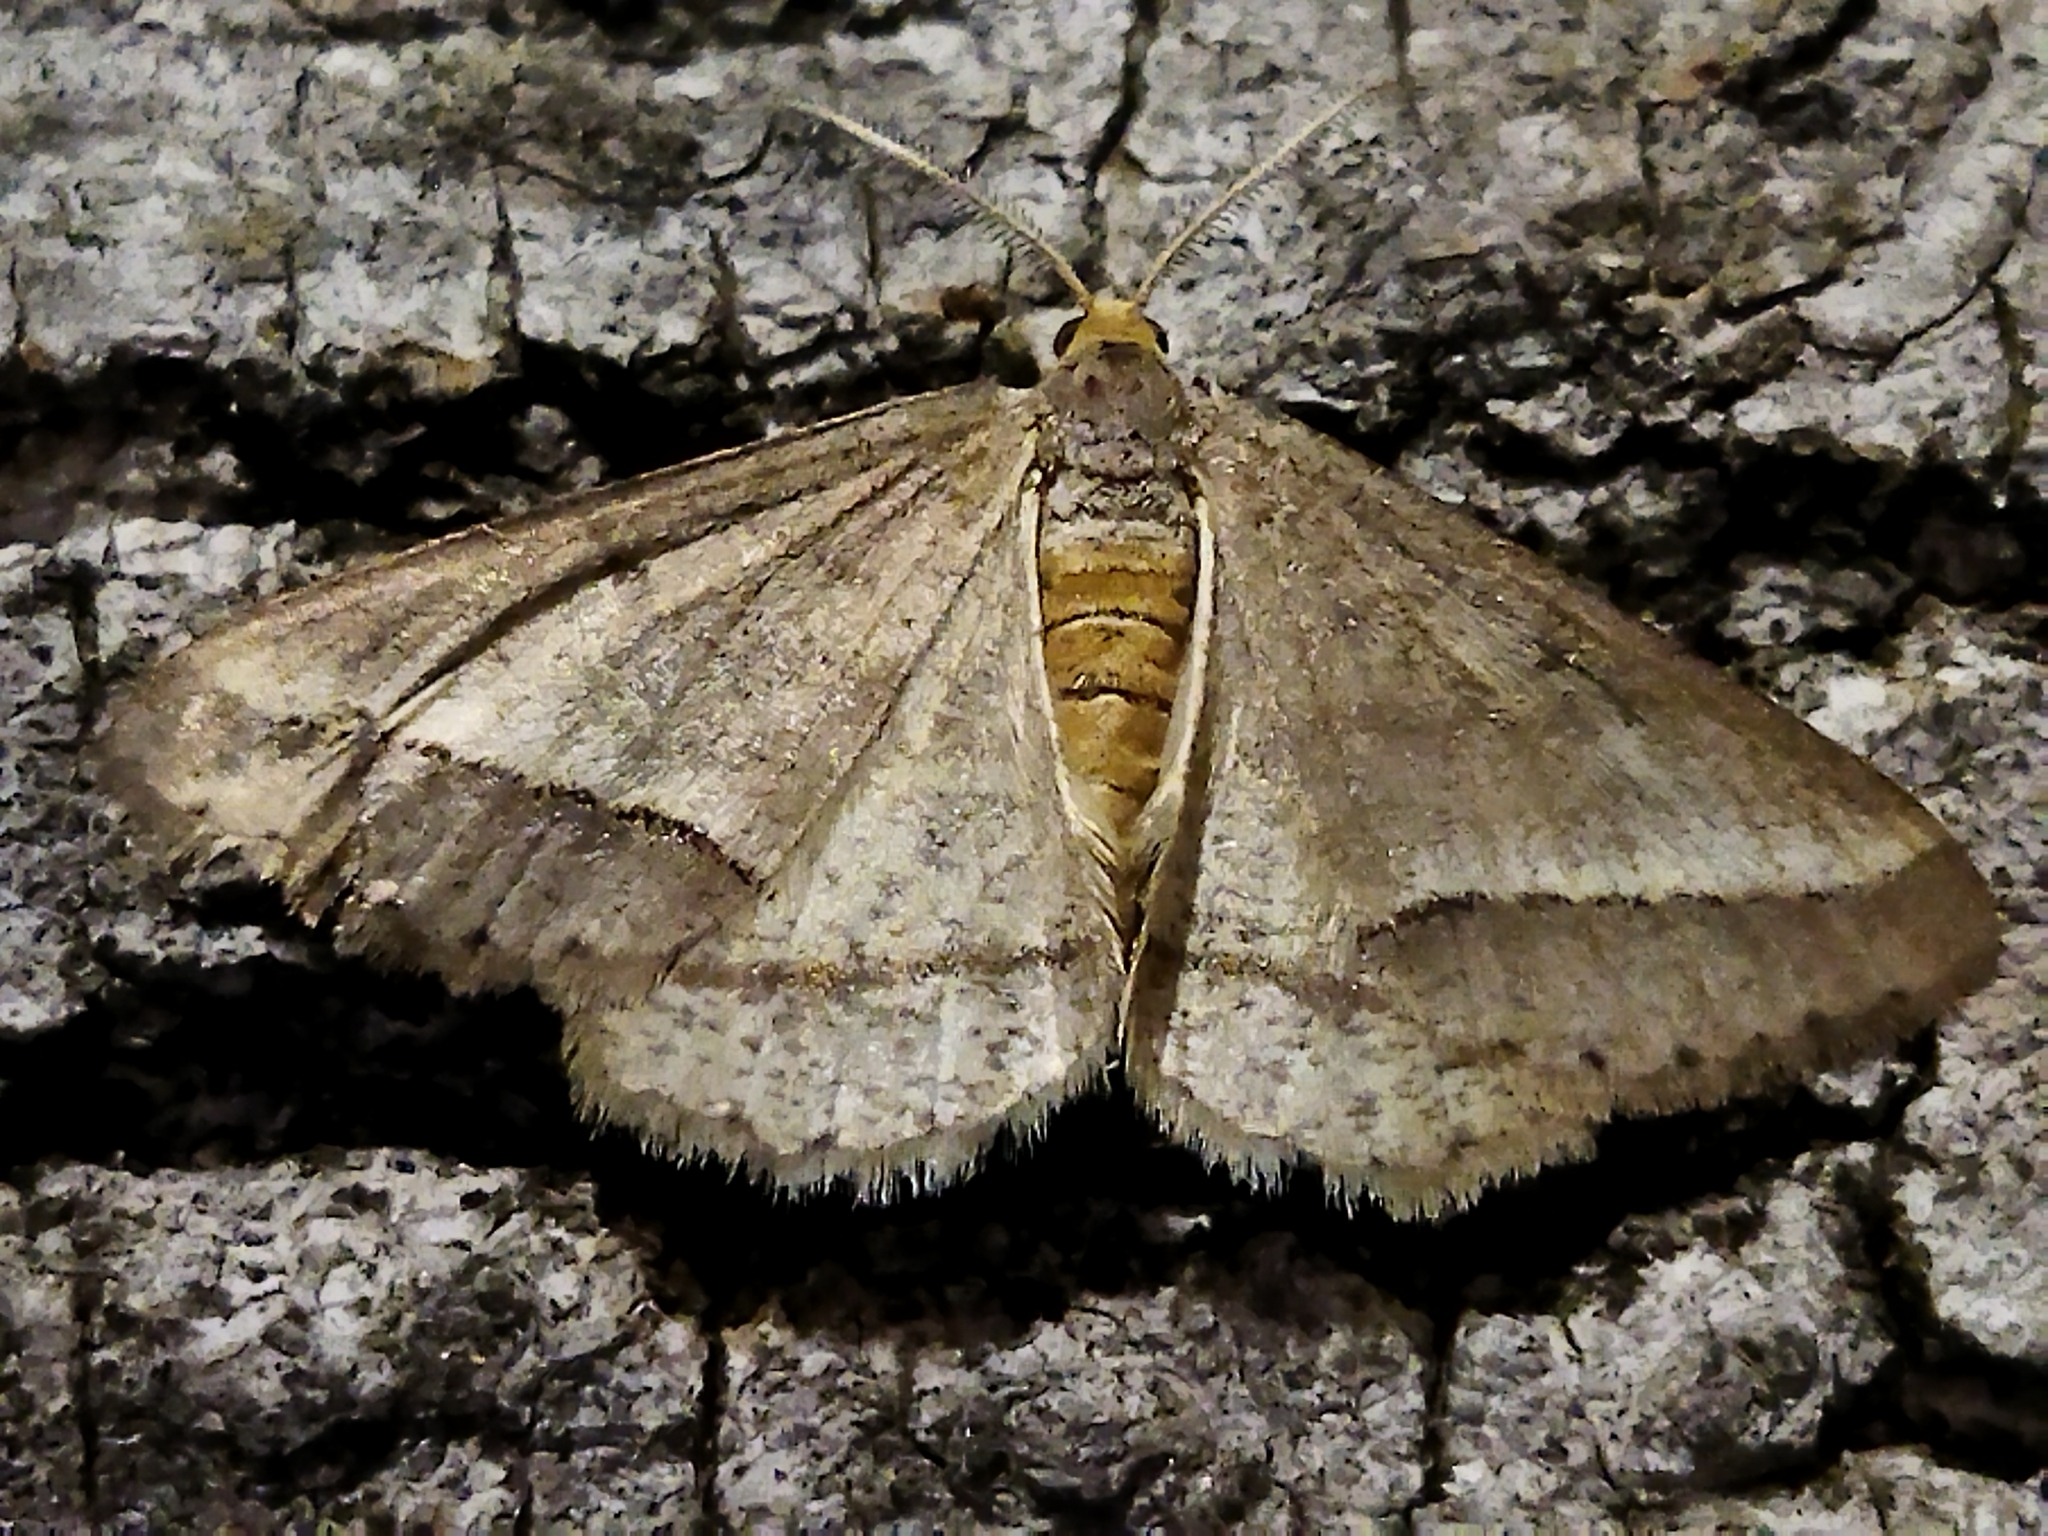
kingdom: Animalia
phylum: Arthropoda
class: Insecta
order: Lepidoptera
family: Geometridae
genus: Tephrina
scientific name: Tephrina arenacearia
